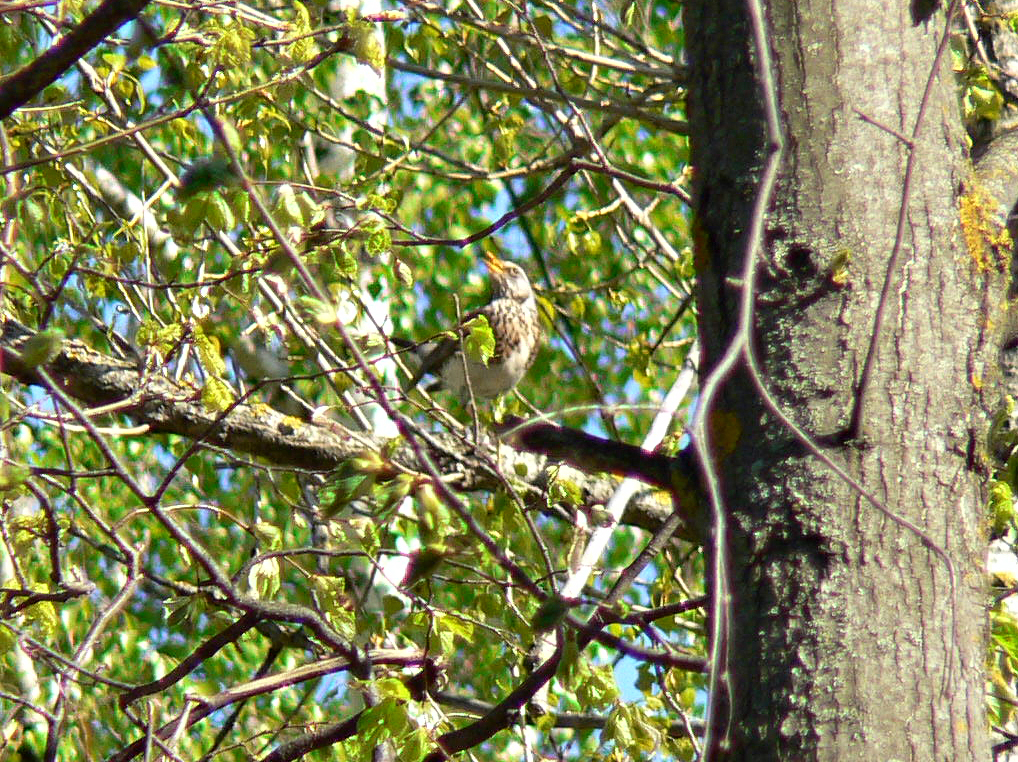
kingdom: Animalia
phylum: Chordata
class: Aves
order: Passeriformes
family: Turdidae
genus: Turdus
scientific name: Turdus pilaris
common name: Fieldfare
